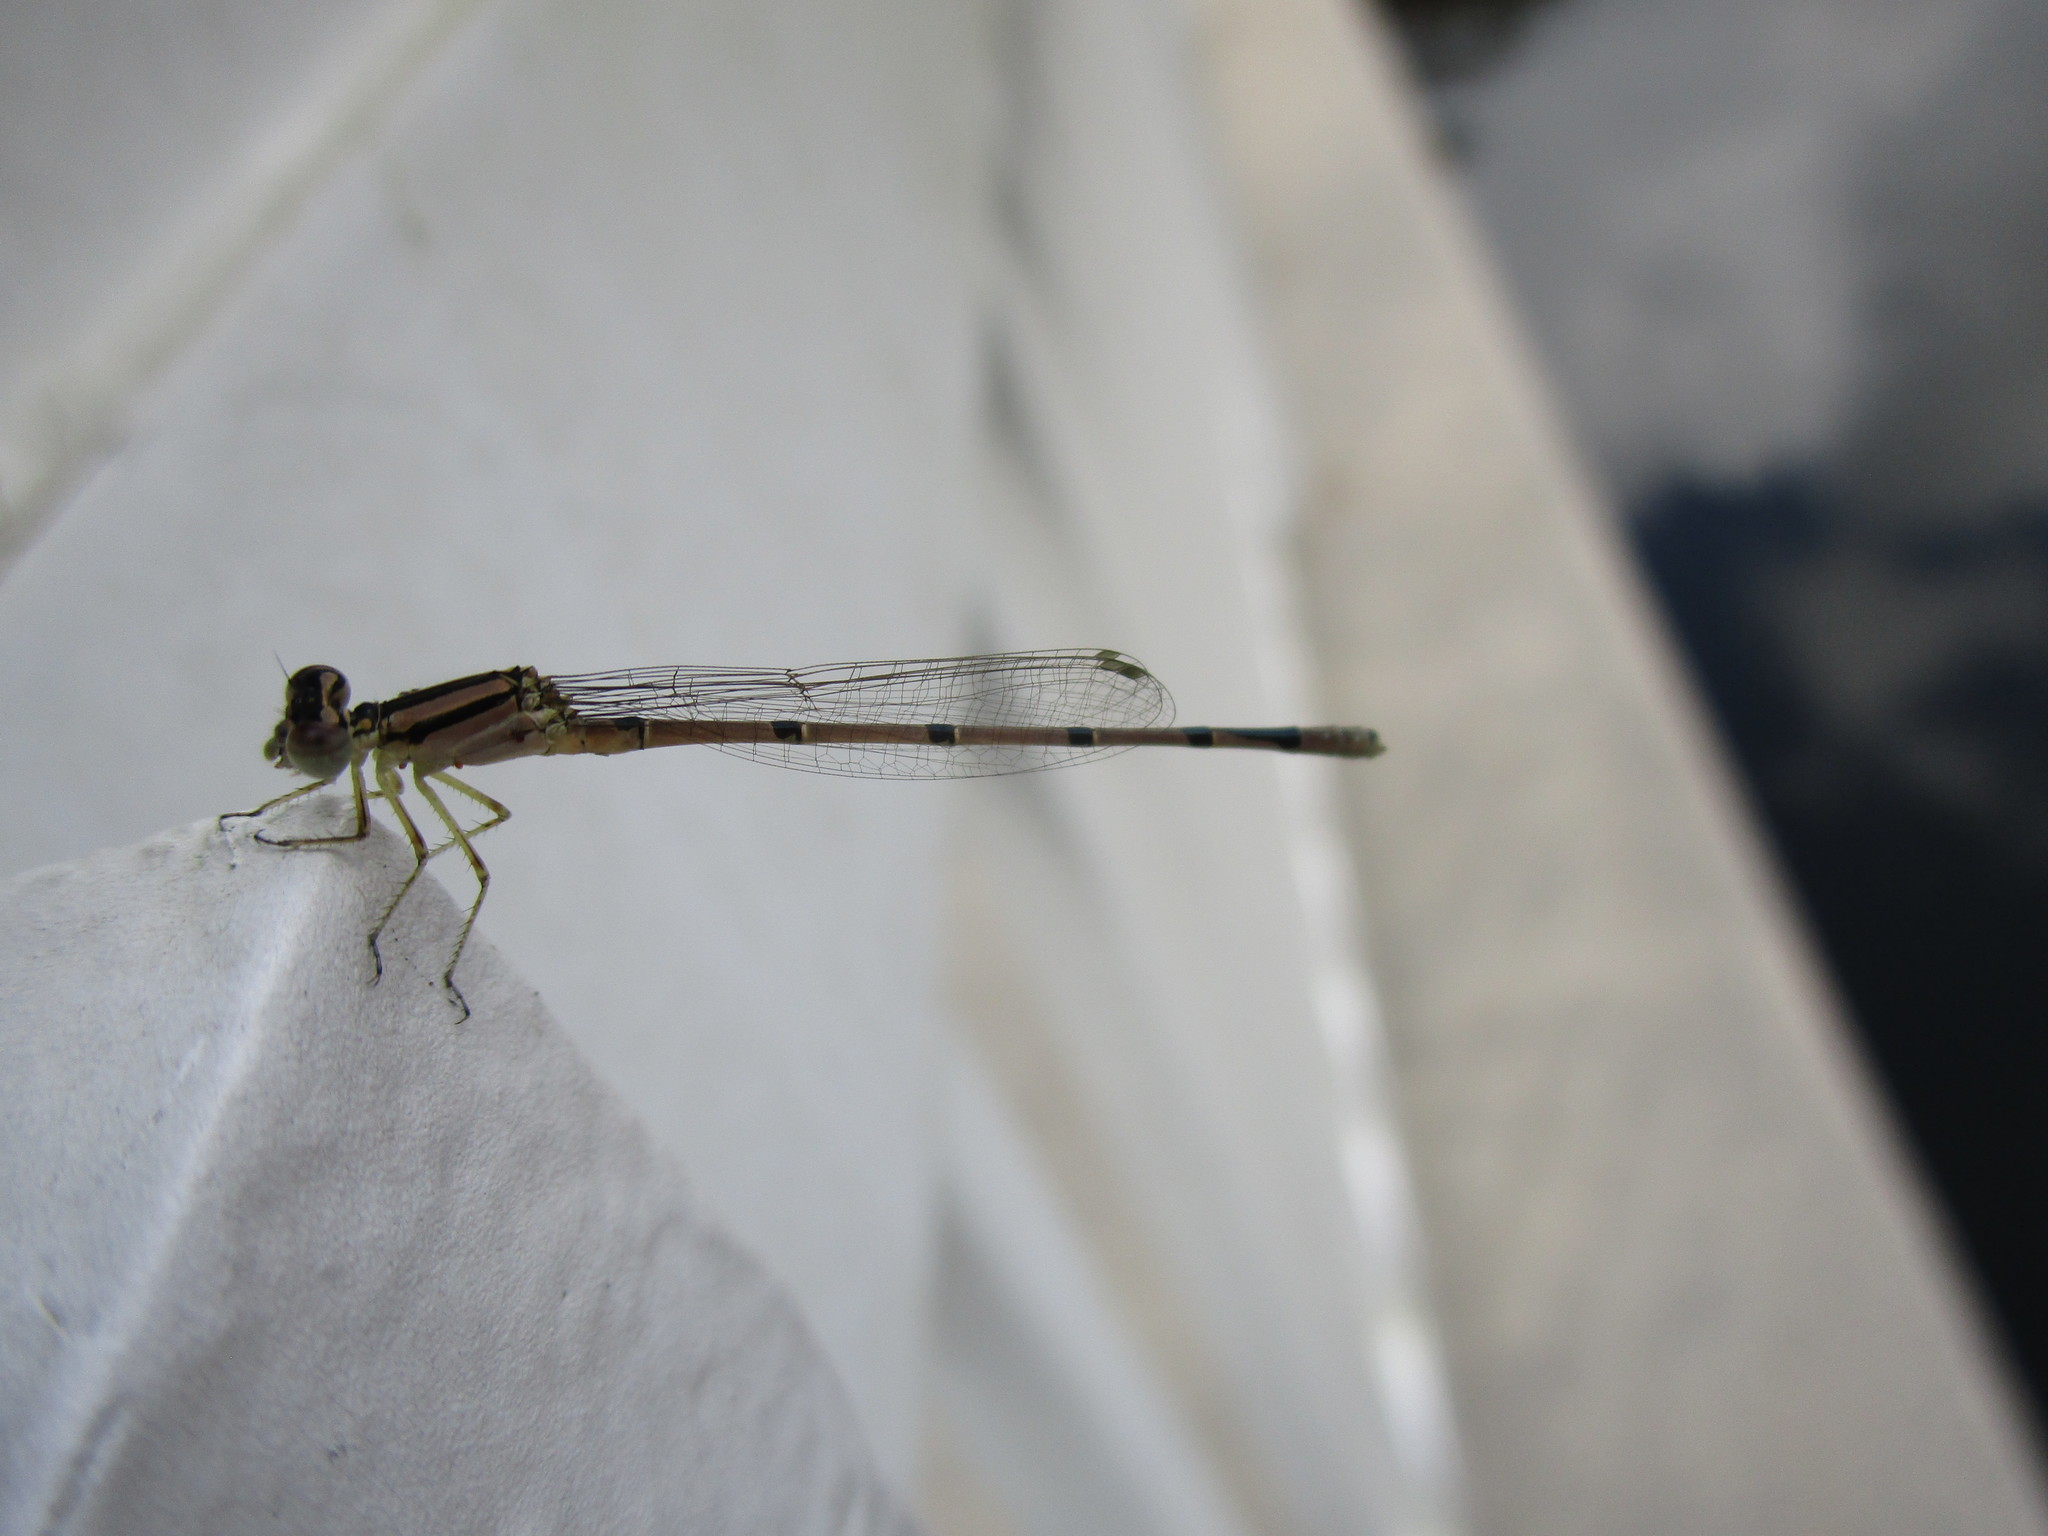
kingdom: Animalia
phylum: Arthropoda
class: Insecta
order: Odonata
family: Coenagrionidae
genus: Enallagma
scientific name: Enallagma
